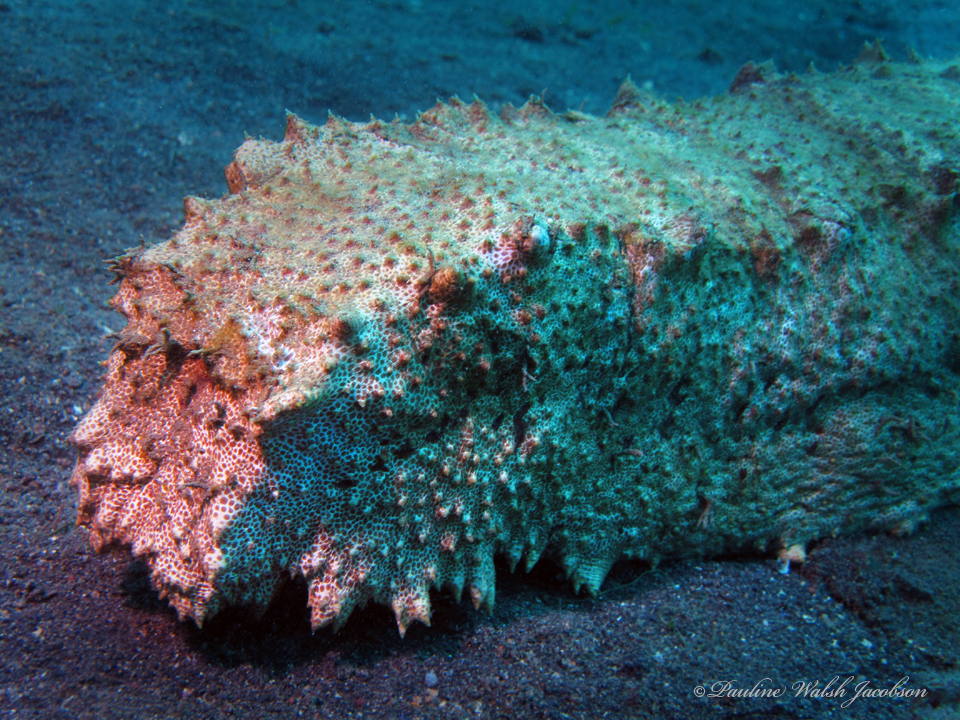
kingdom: Animalia
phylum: Echinodermata
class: Holothuroidea
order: Synallactida
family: Stichopodidae
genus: Thelenota
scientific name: Thelenota anax
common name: Amberfish
